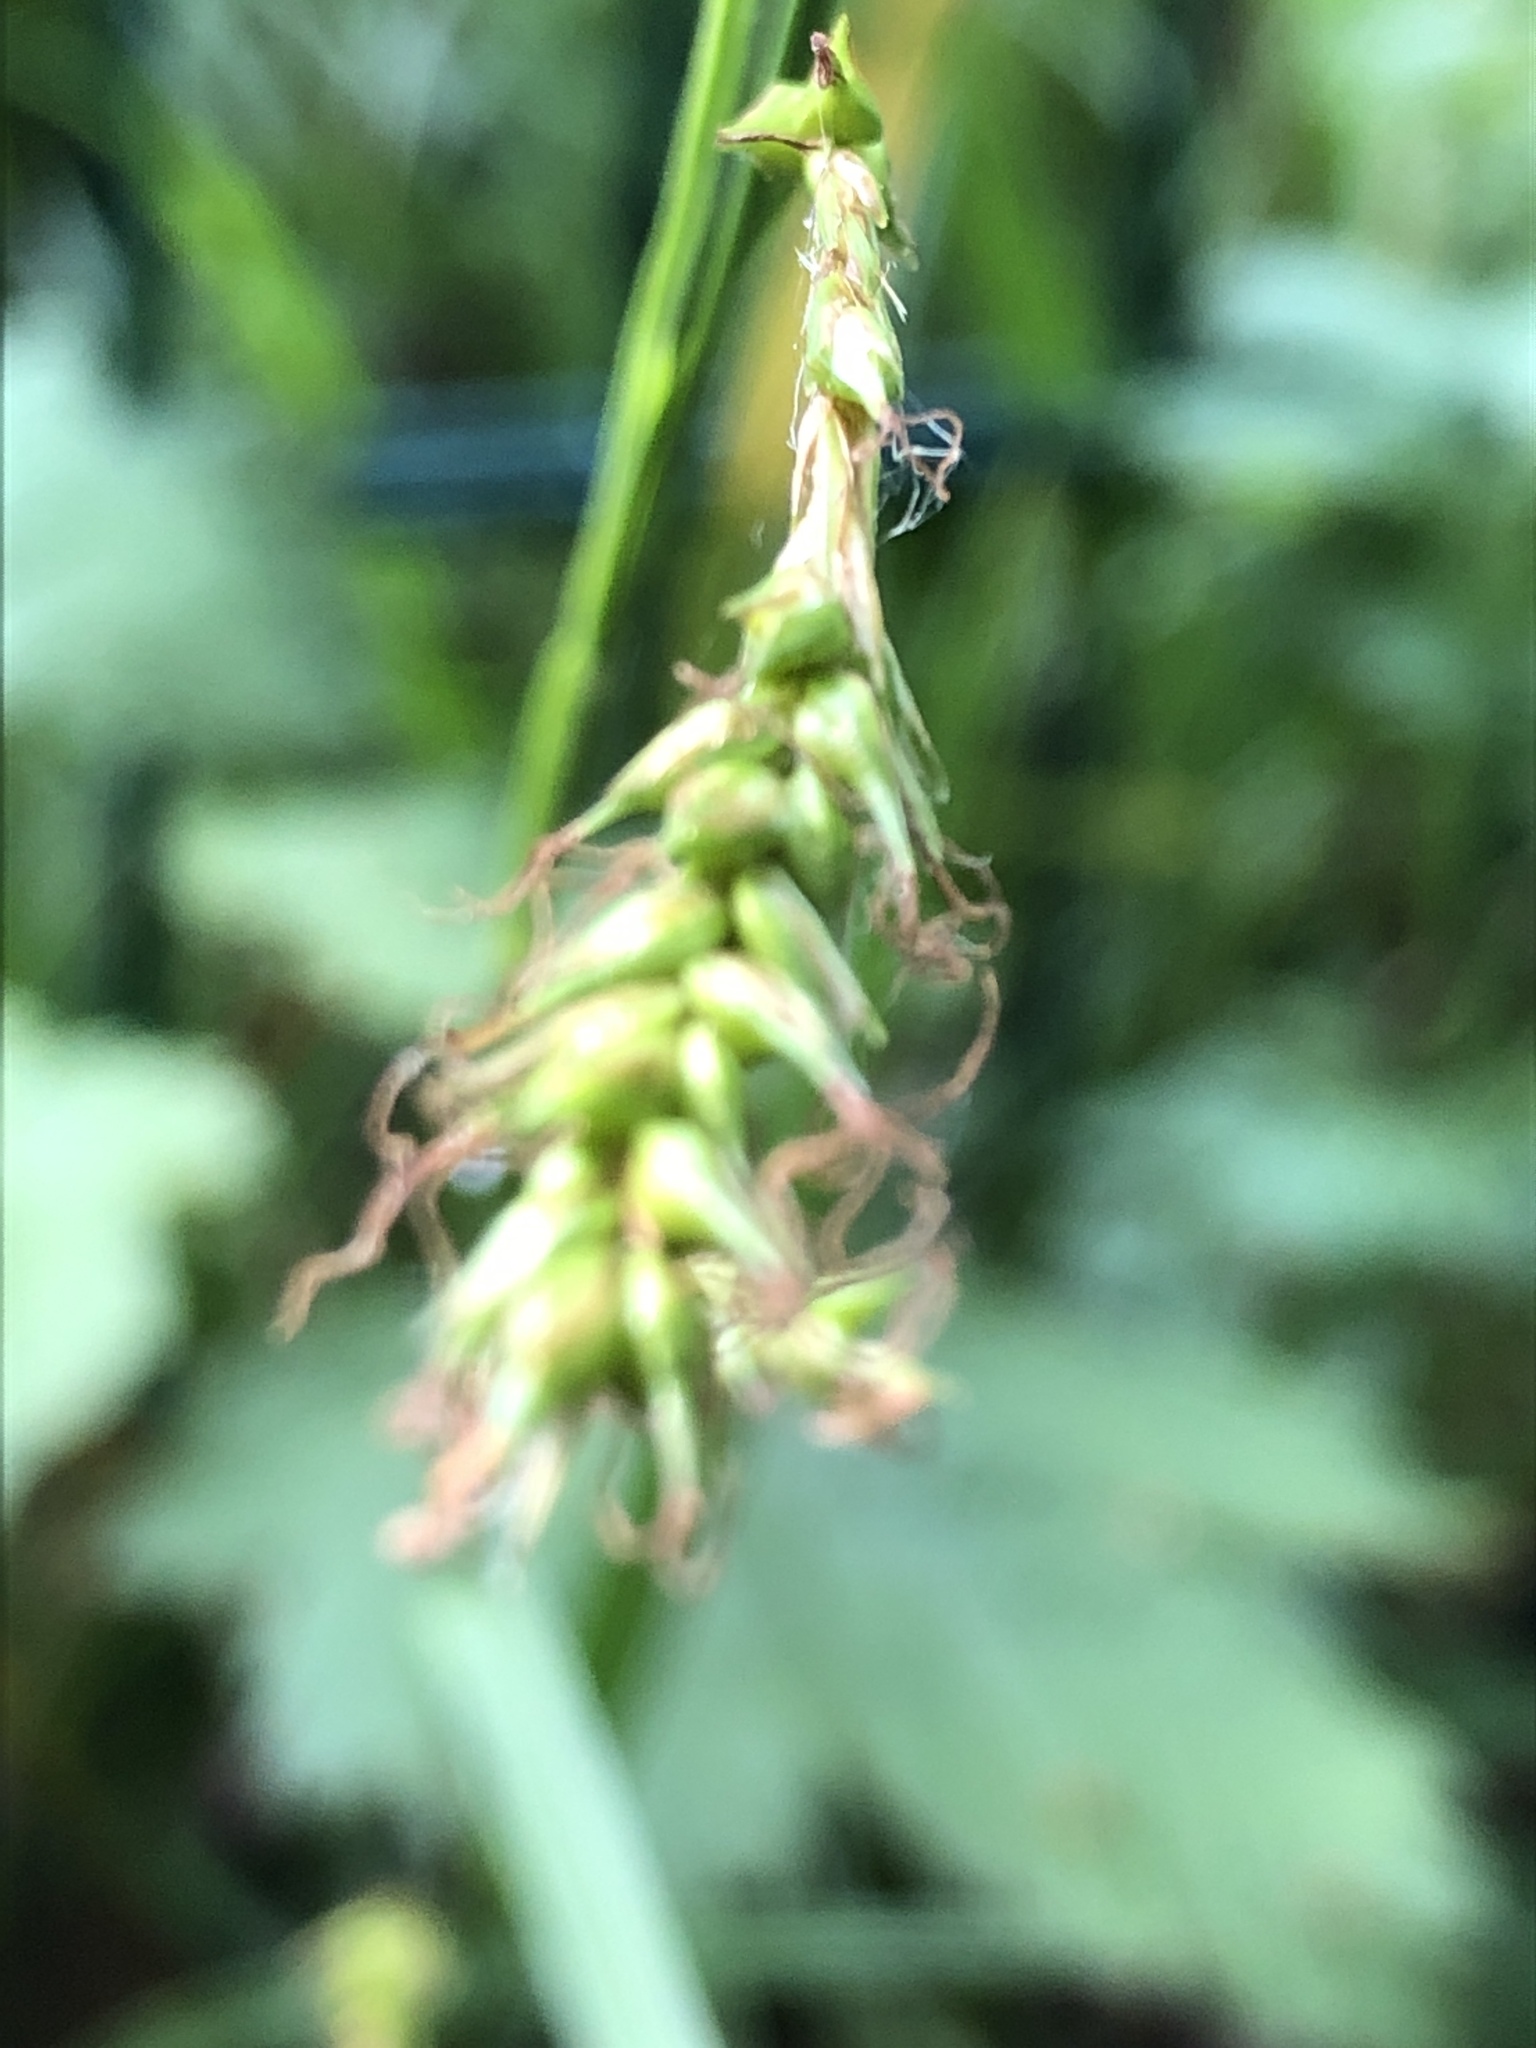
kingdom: Plantae
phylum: Tracheophyta
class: Liliopsida
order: Poales
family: Cyperaceae
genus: Carex
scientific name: Carex hirta
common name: Hairy sedge
